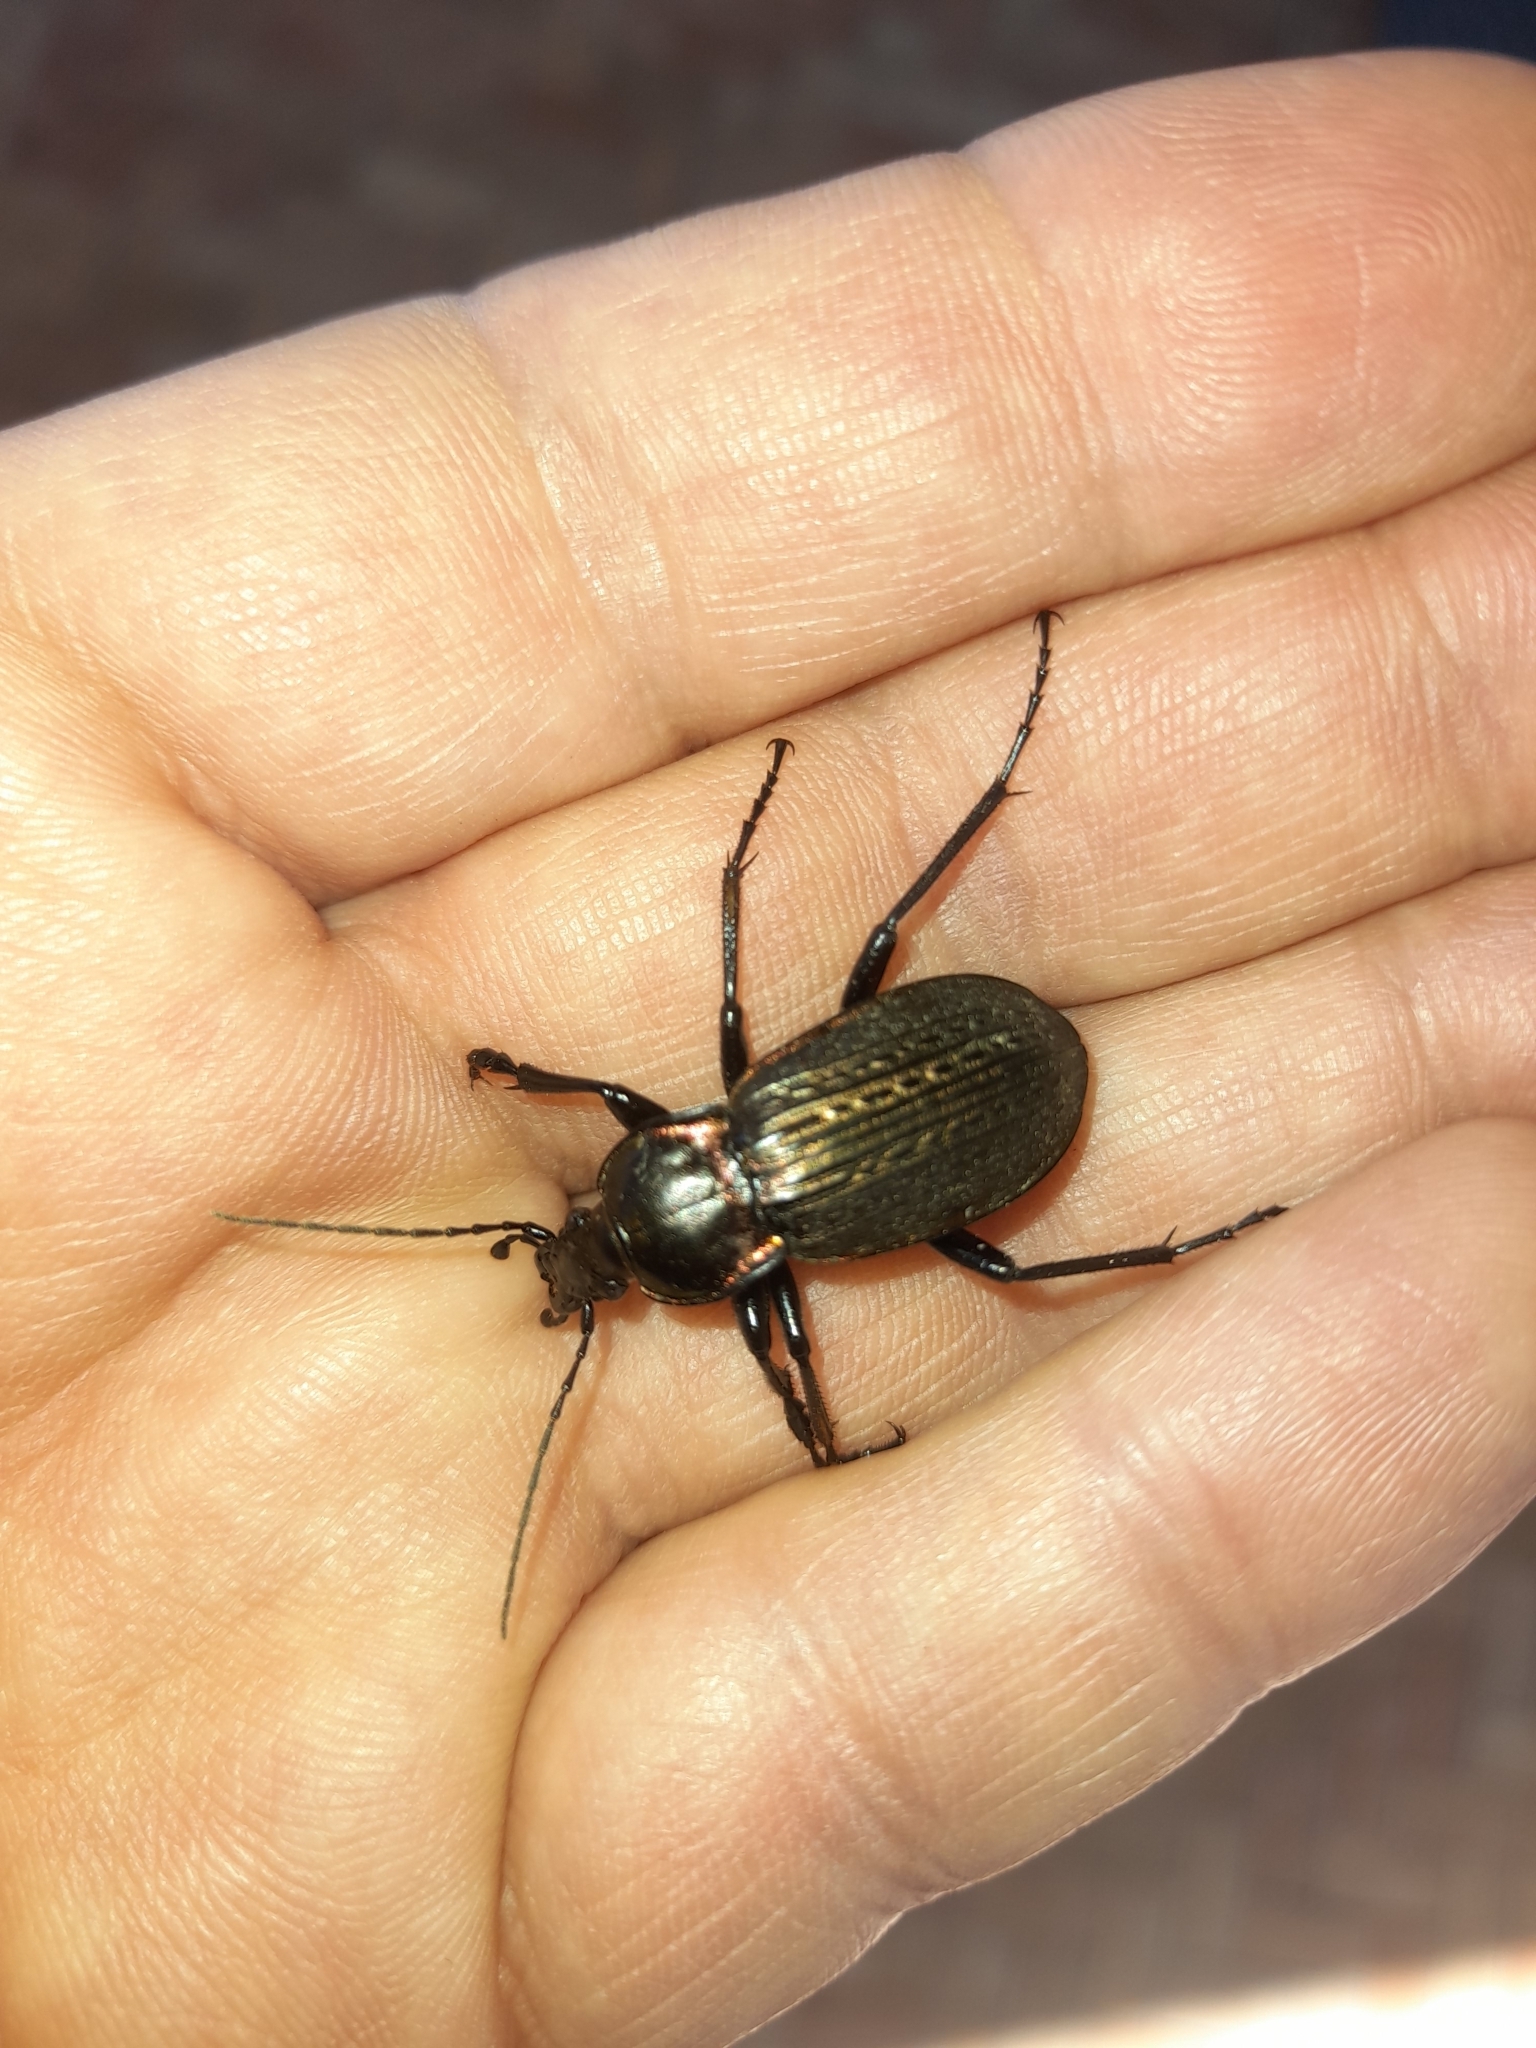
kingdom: Animalia
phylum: Arthropoda
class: Insecta
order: Coleoptera
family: Carabidae
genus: Carabus
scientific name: Carabus morbillosus
